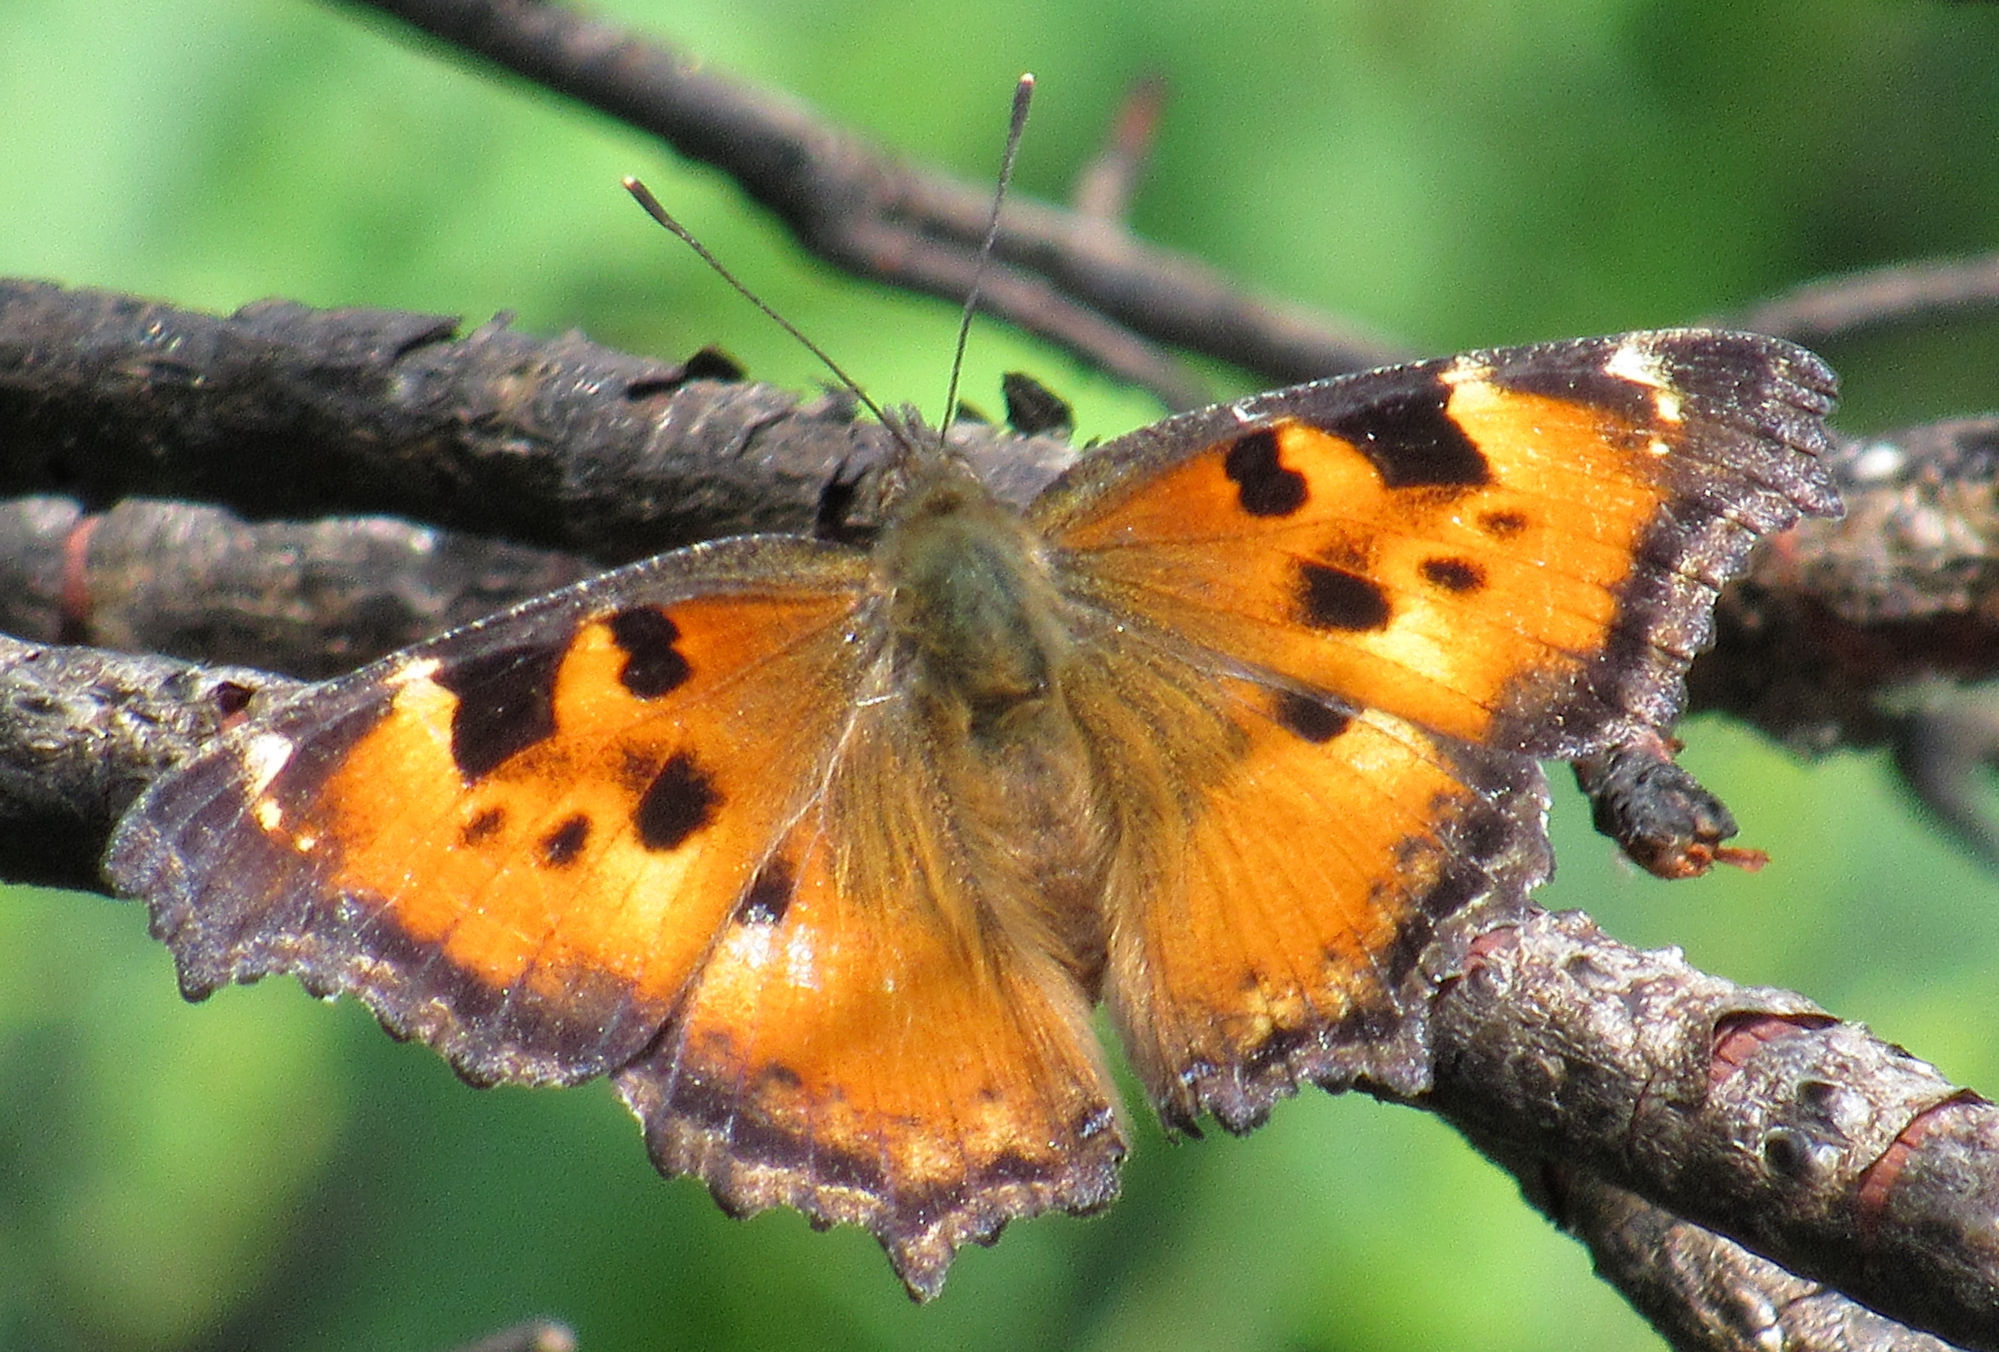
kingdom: Animalia
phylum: Arthropoda
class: Insecta
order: Lepidoptera
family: Nymphalidae
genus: Nymphalis
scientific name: Nymphalis californica
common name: California tortoiseshell
